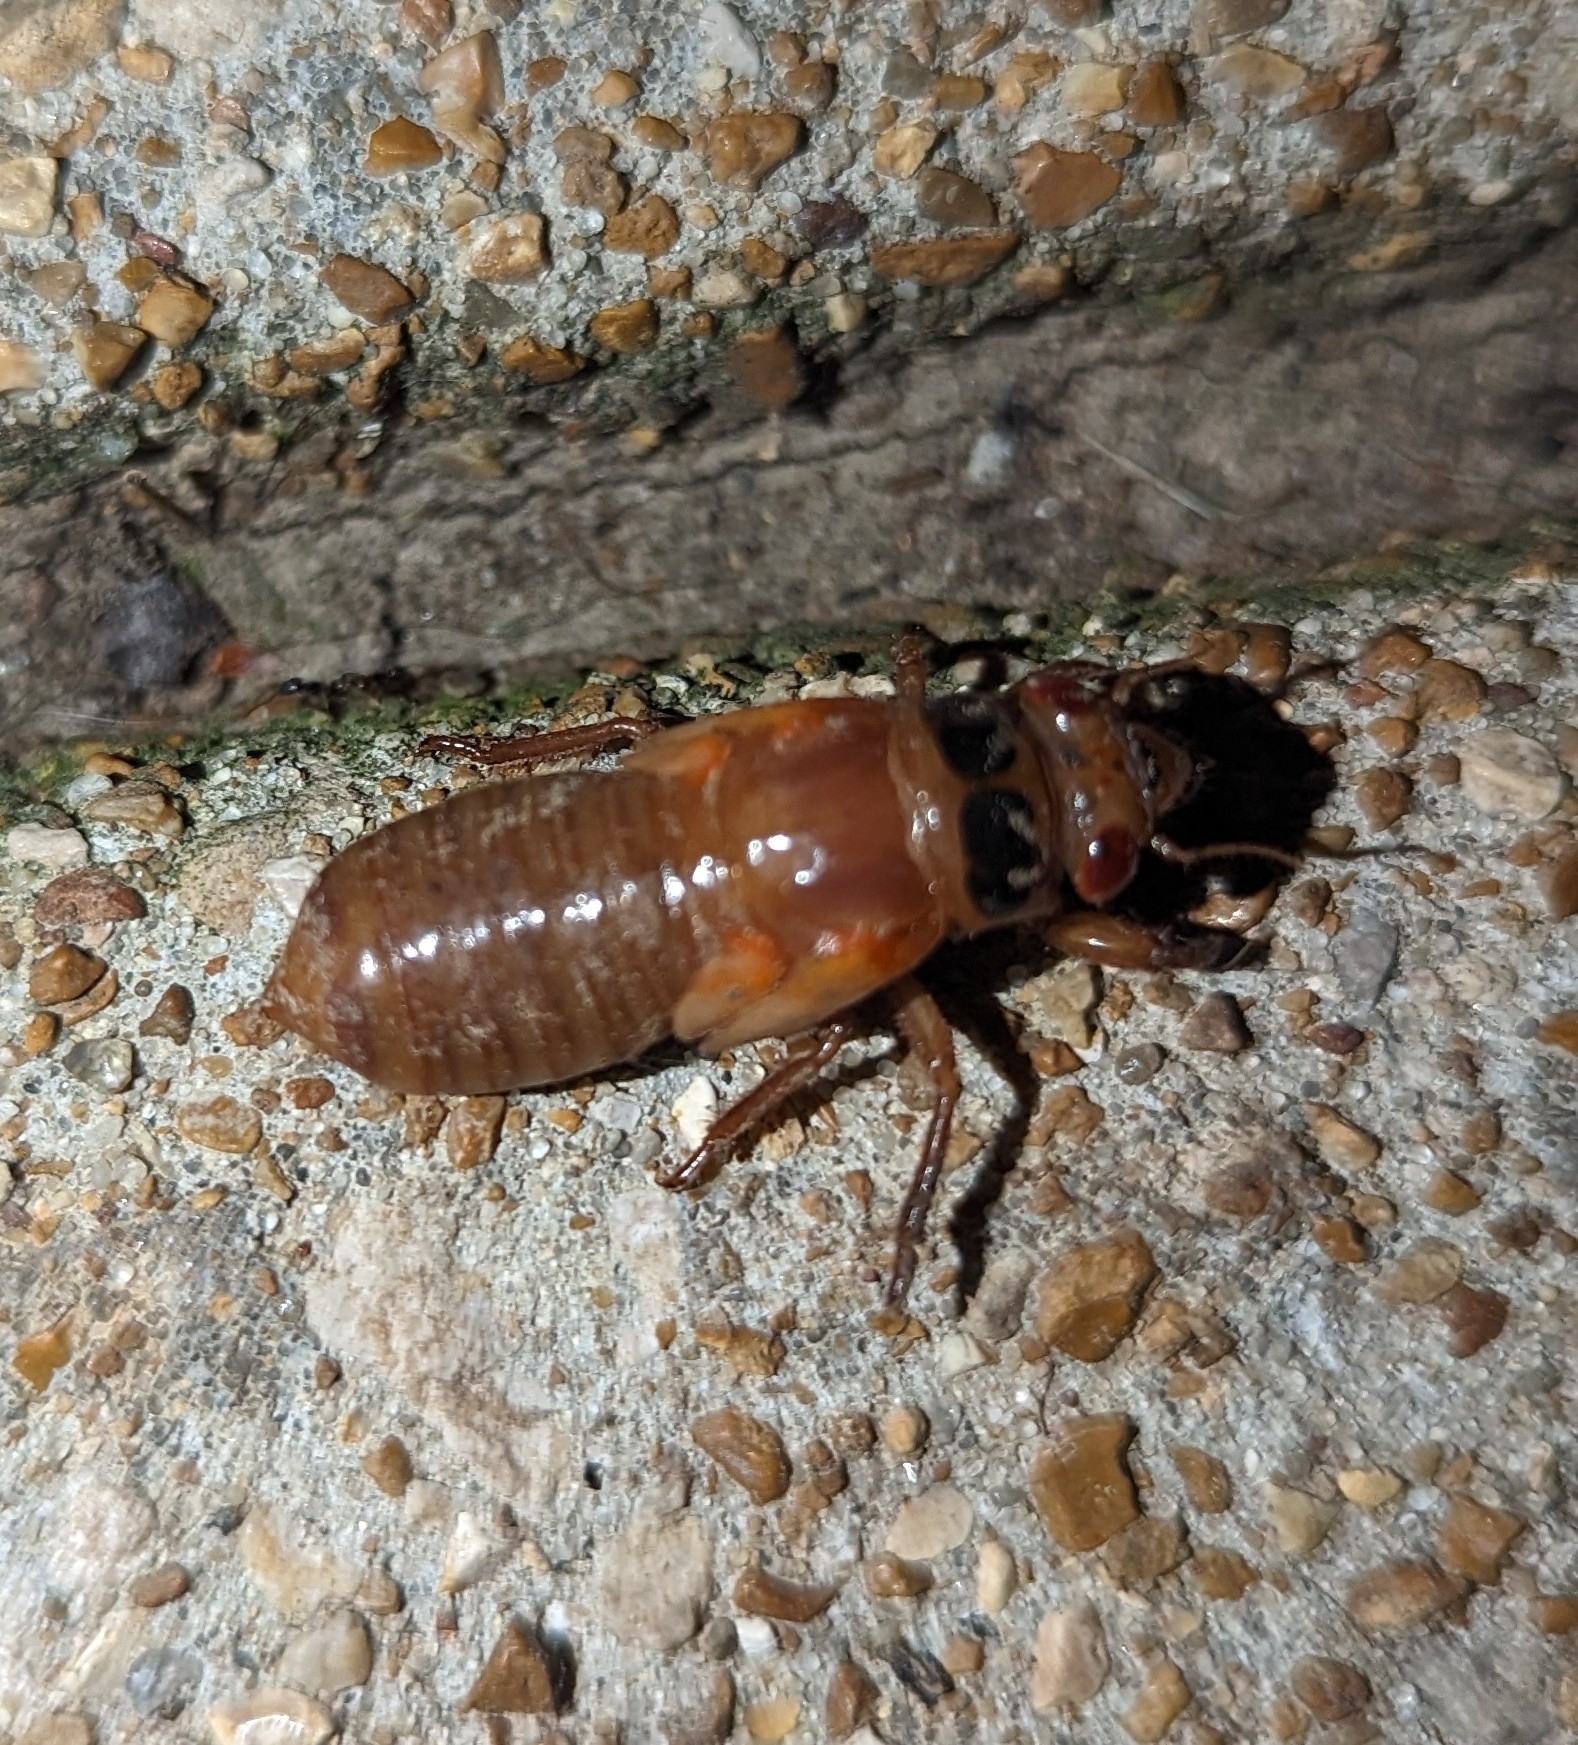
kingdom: Animalia
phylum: Arthropoda
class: Insecta
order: Hemiptera
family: Cicadidae
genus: Magicicada
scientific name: Magicicada
